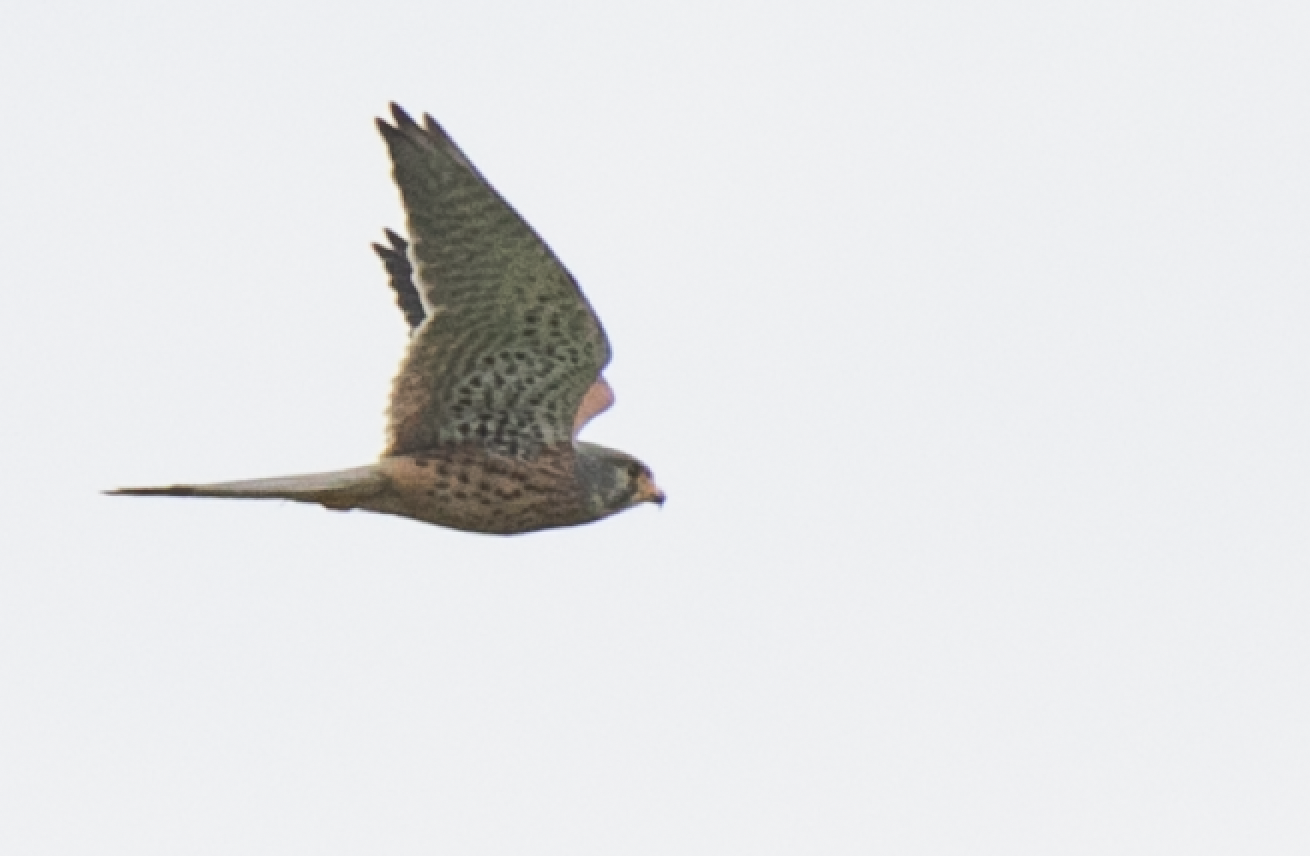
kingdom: Animalia
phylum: Chordata
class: Aves
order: Falconiformes
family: Falconidae
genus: Falco
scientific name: Falco tinnunculus
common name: Common kestrel
